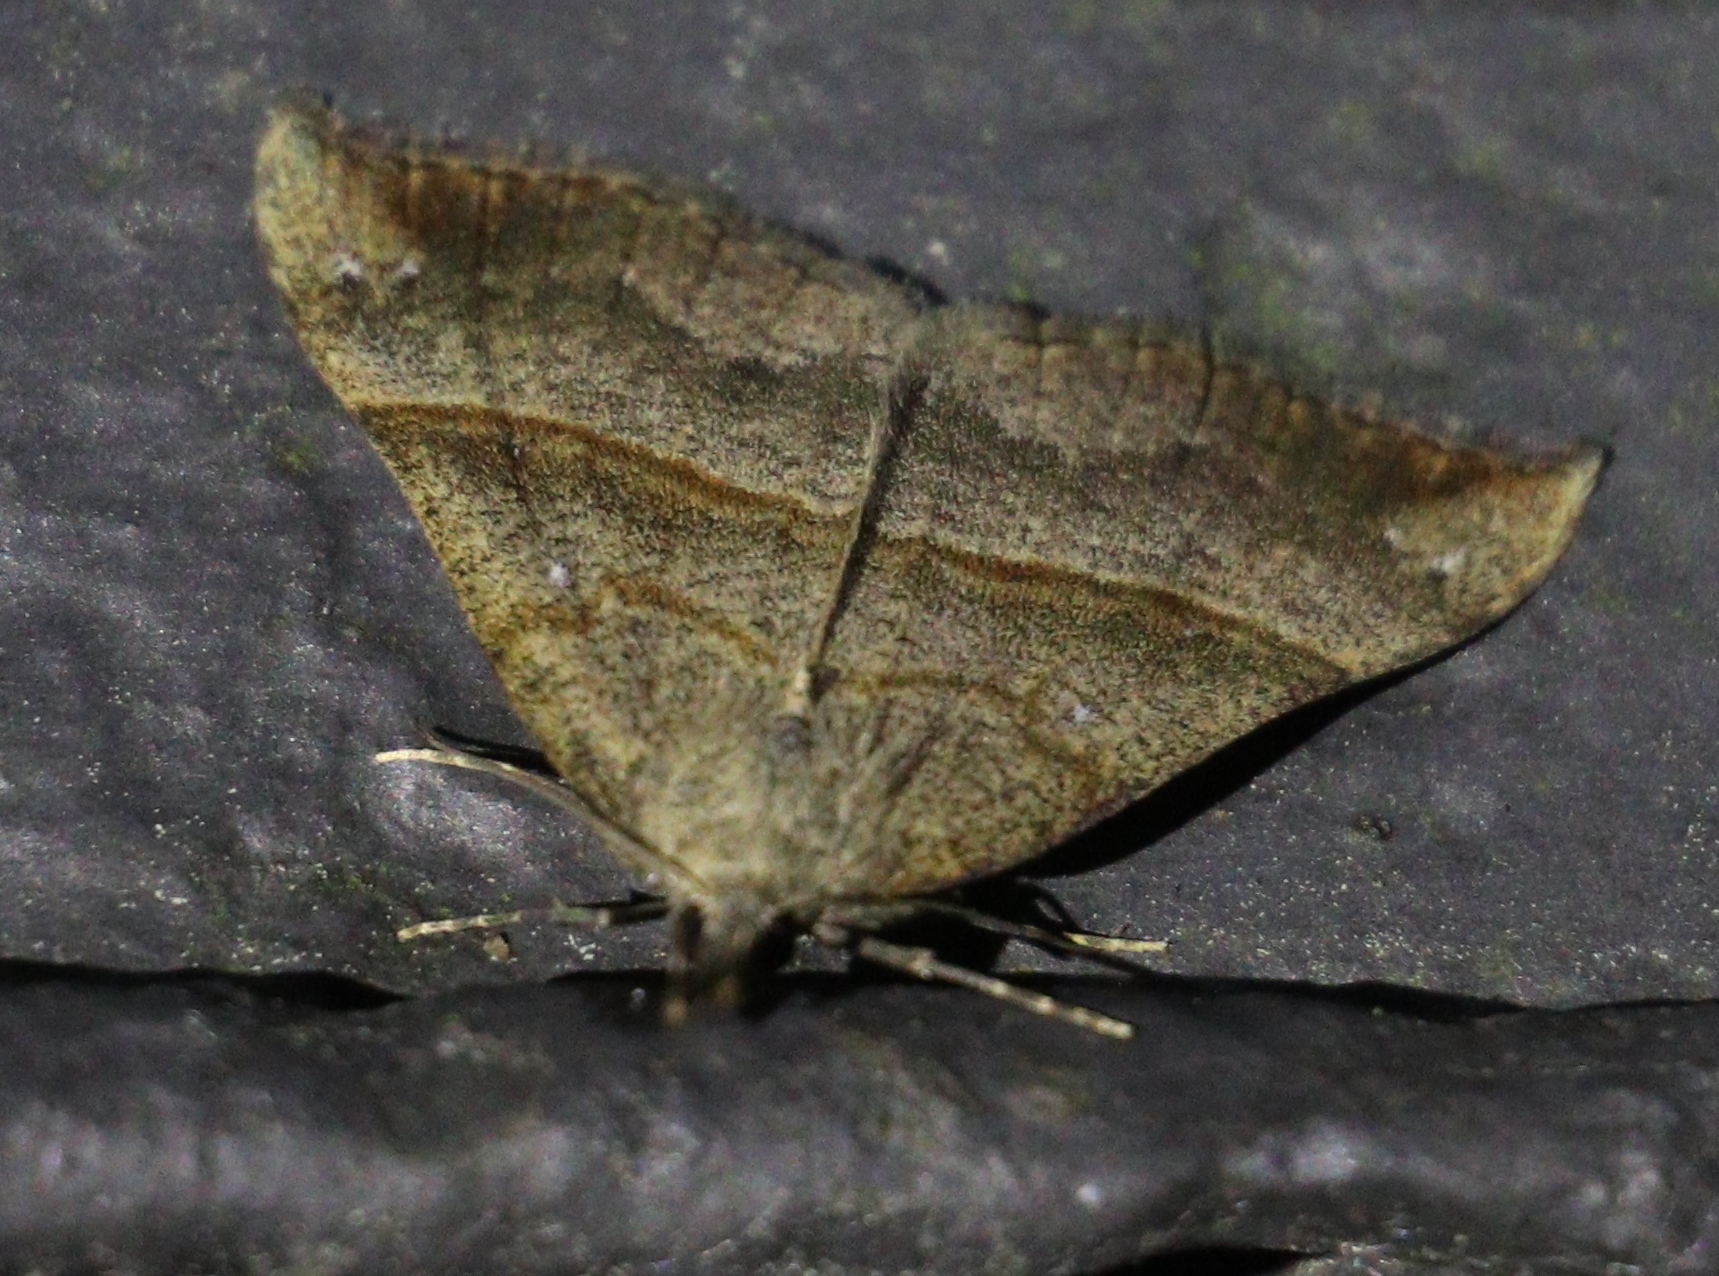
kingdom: Animalia
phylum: Arthropoda
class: Insecta
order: Lepidoptera
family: Erebidae
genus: Hypena
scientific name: Hypena proboscidalis
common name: Snout
